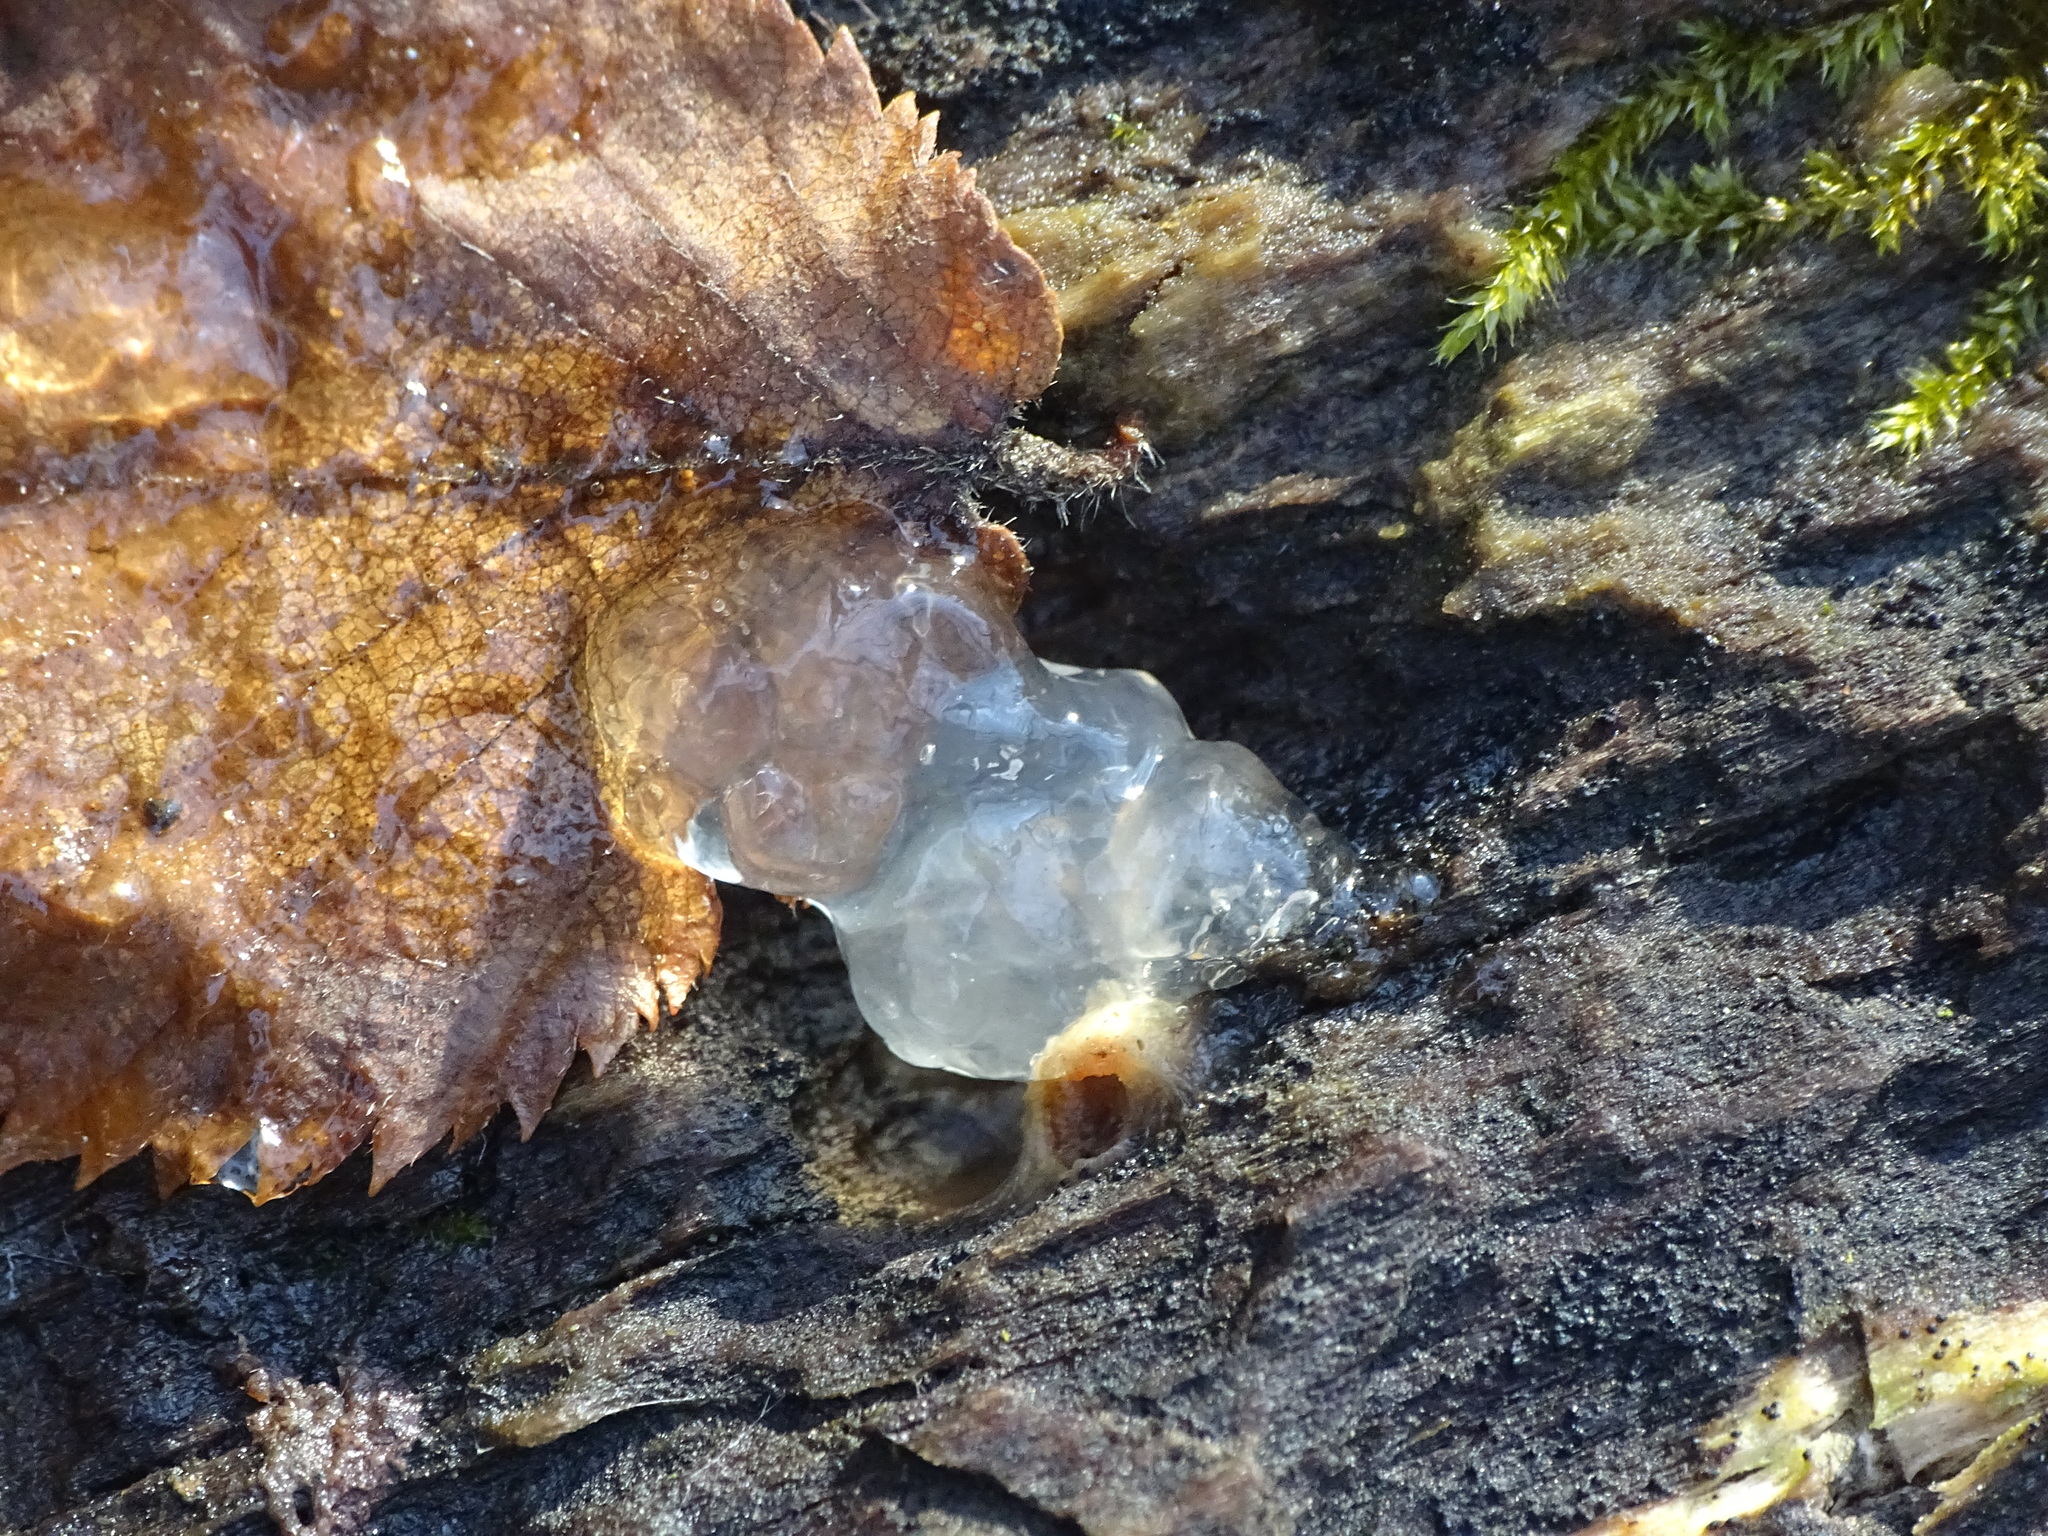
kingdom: Fungi
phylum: Basidiomycota
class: Agaricomycetes
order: Auriculariales
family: Hyaloriaceae
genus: Myxarium
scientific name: Myxarium nucleatum
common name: Crystal brain fungus
